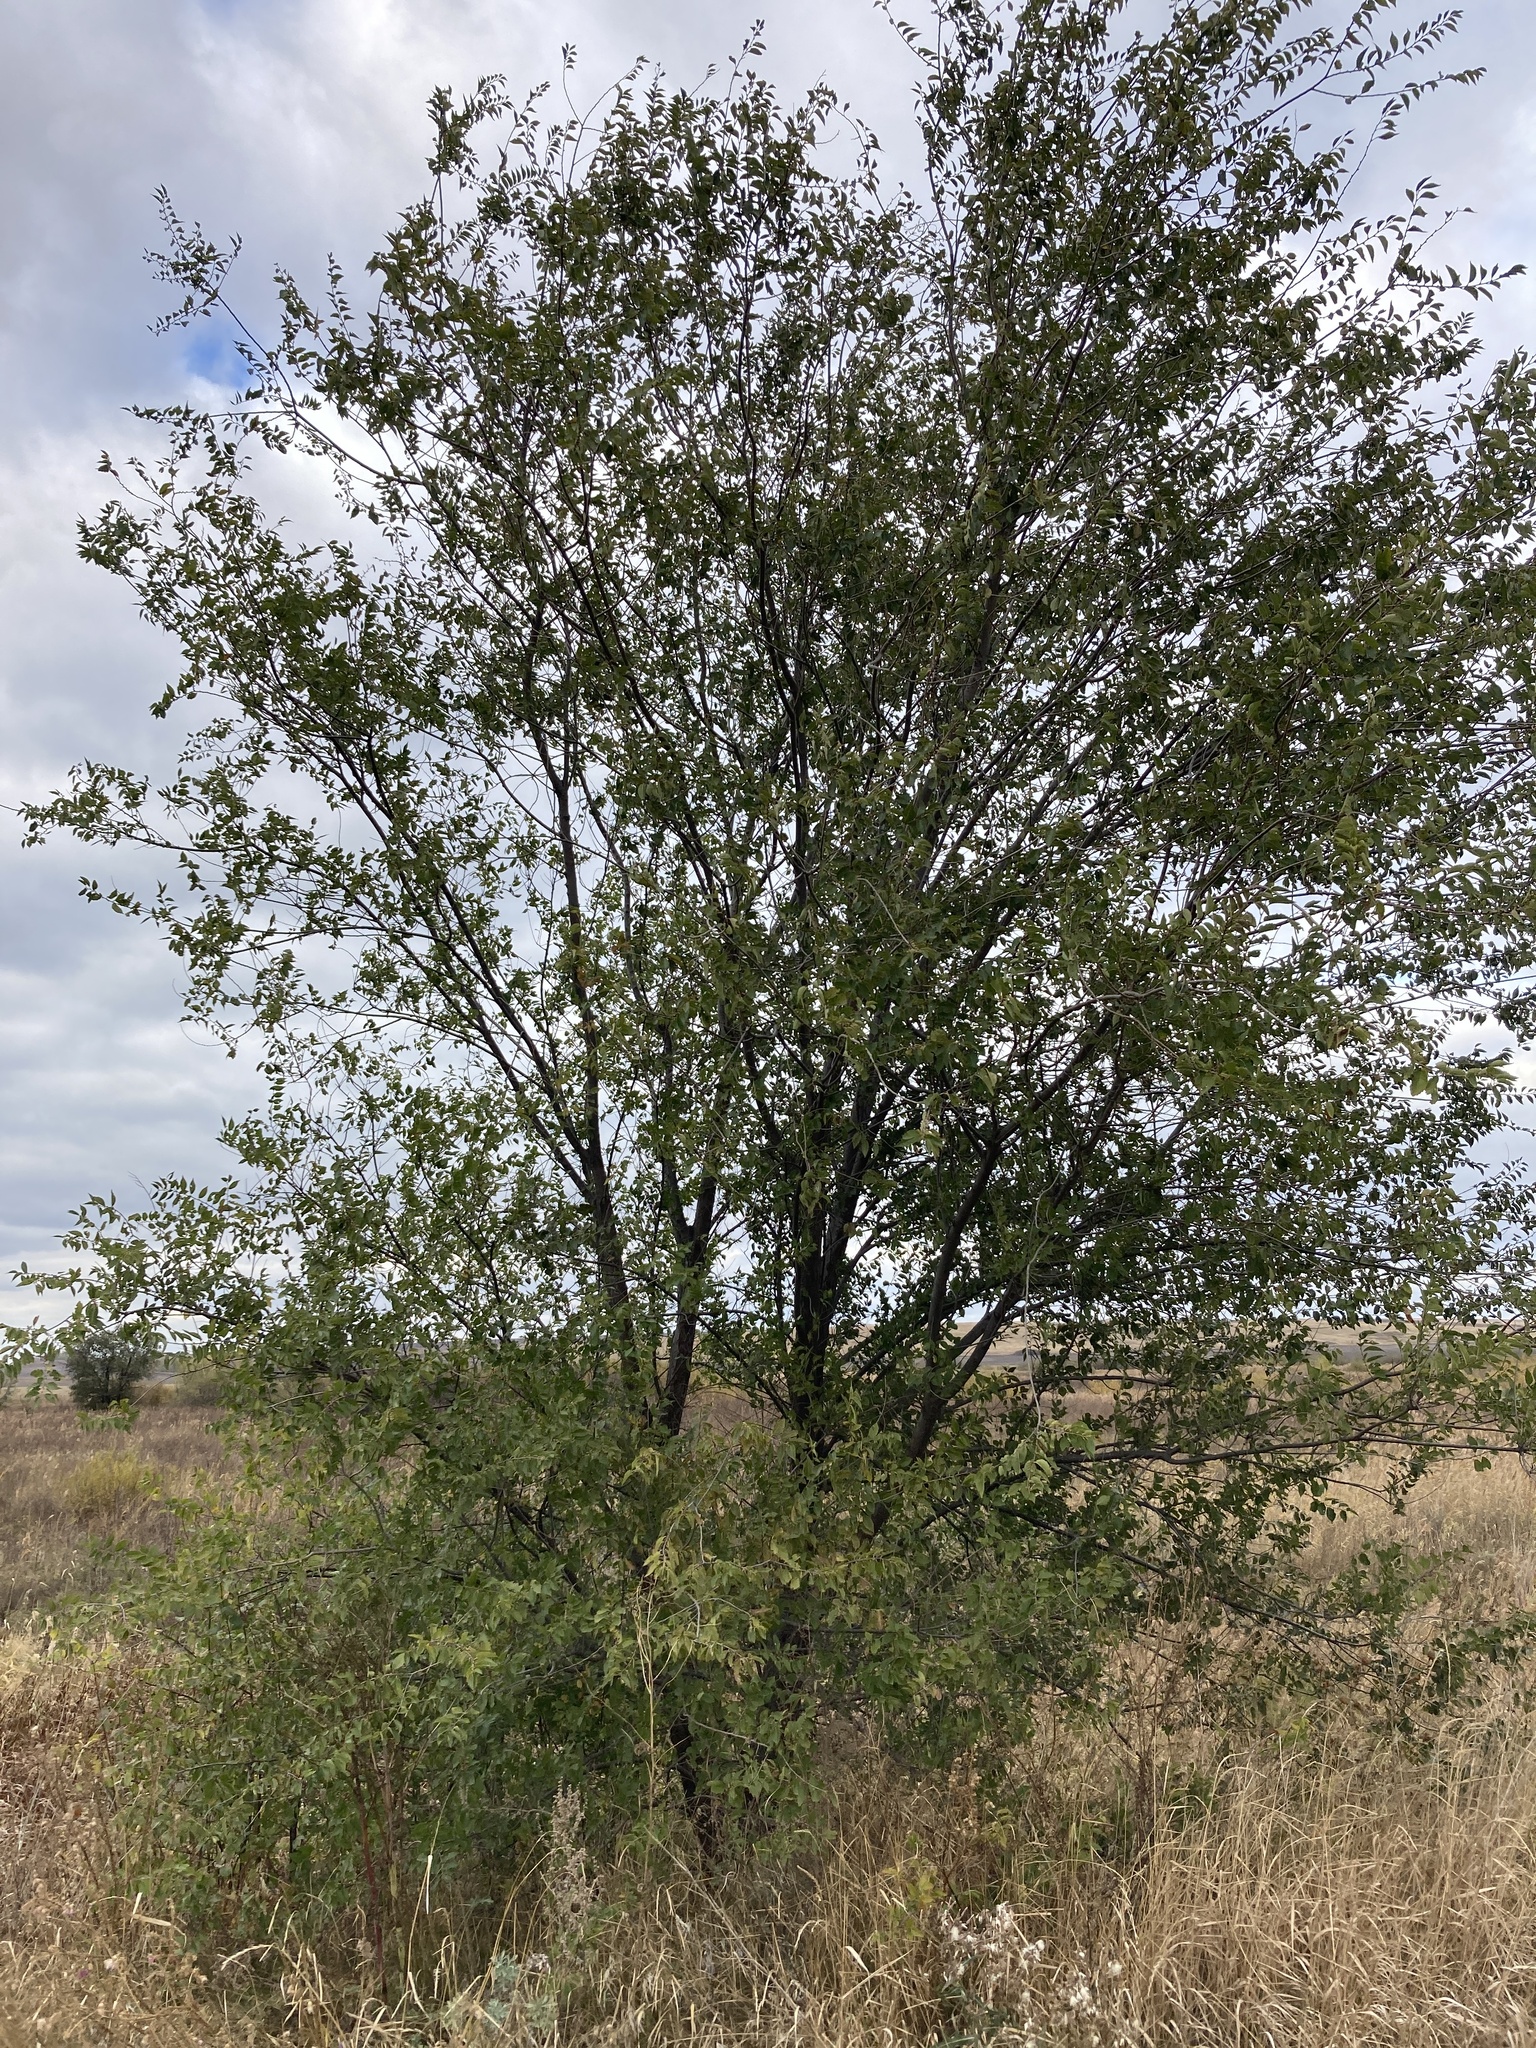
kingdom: Plantae
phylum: Tracheophyta
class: Magnoliopsida
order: Rosales
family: Ulmaceae
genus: Ulmus
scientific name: Ulmus pumila
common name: Siberian elm
